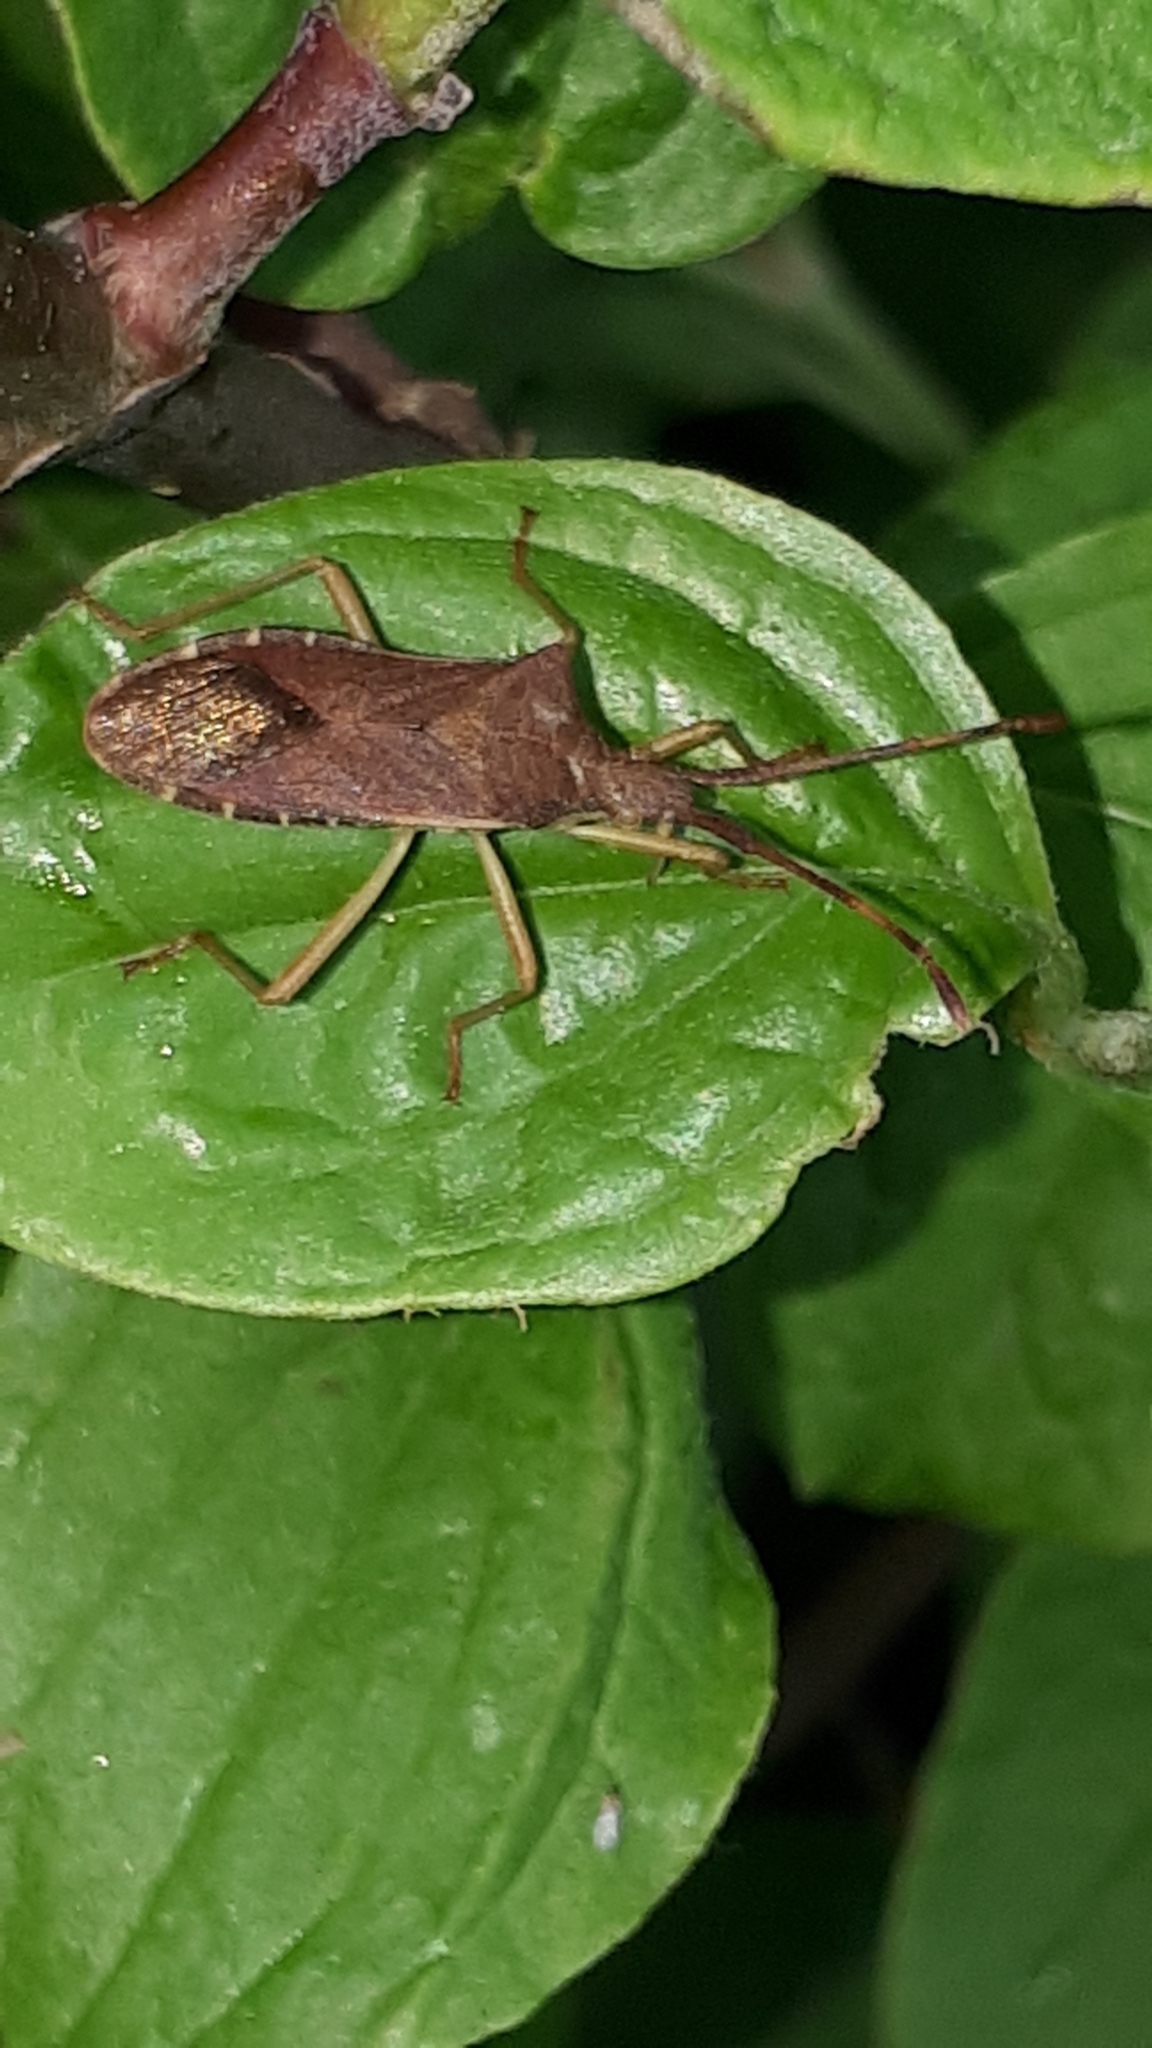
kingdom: Animalia
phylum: Arthropoda
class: Insecta
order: Hemiptera
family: Coreidae
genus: Gonocerus
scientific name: Gonocerus acuteangulatus
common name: Box bug
